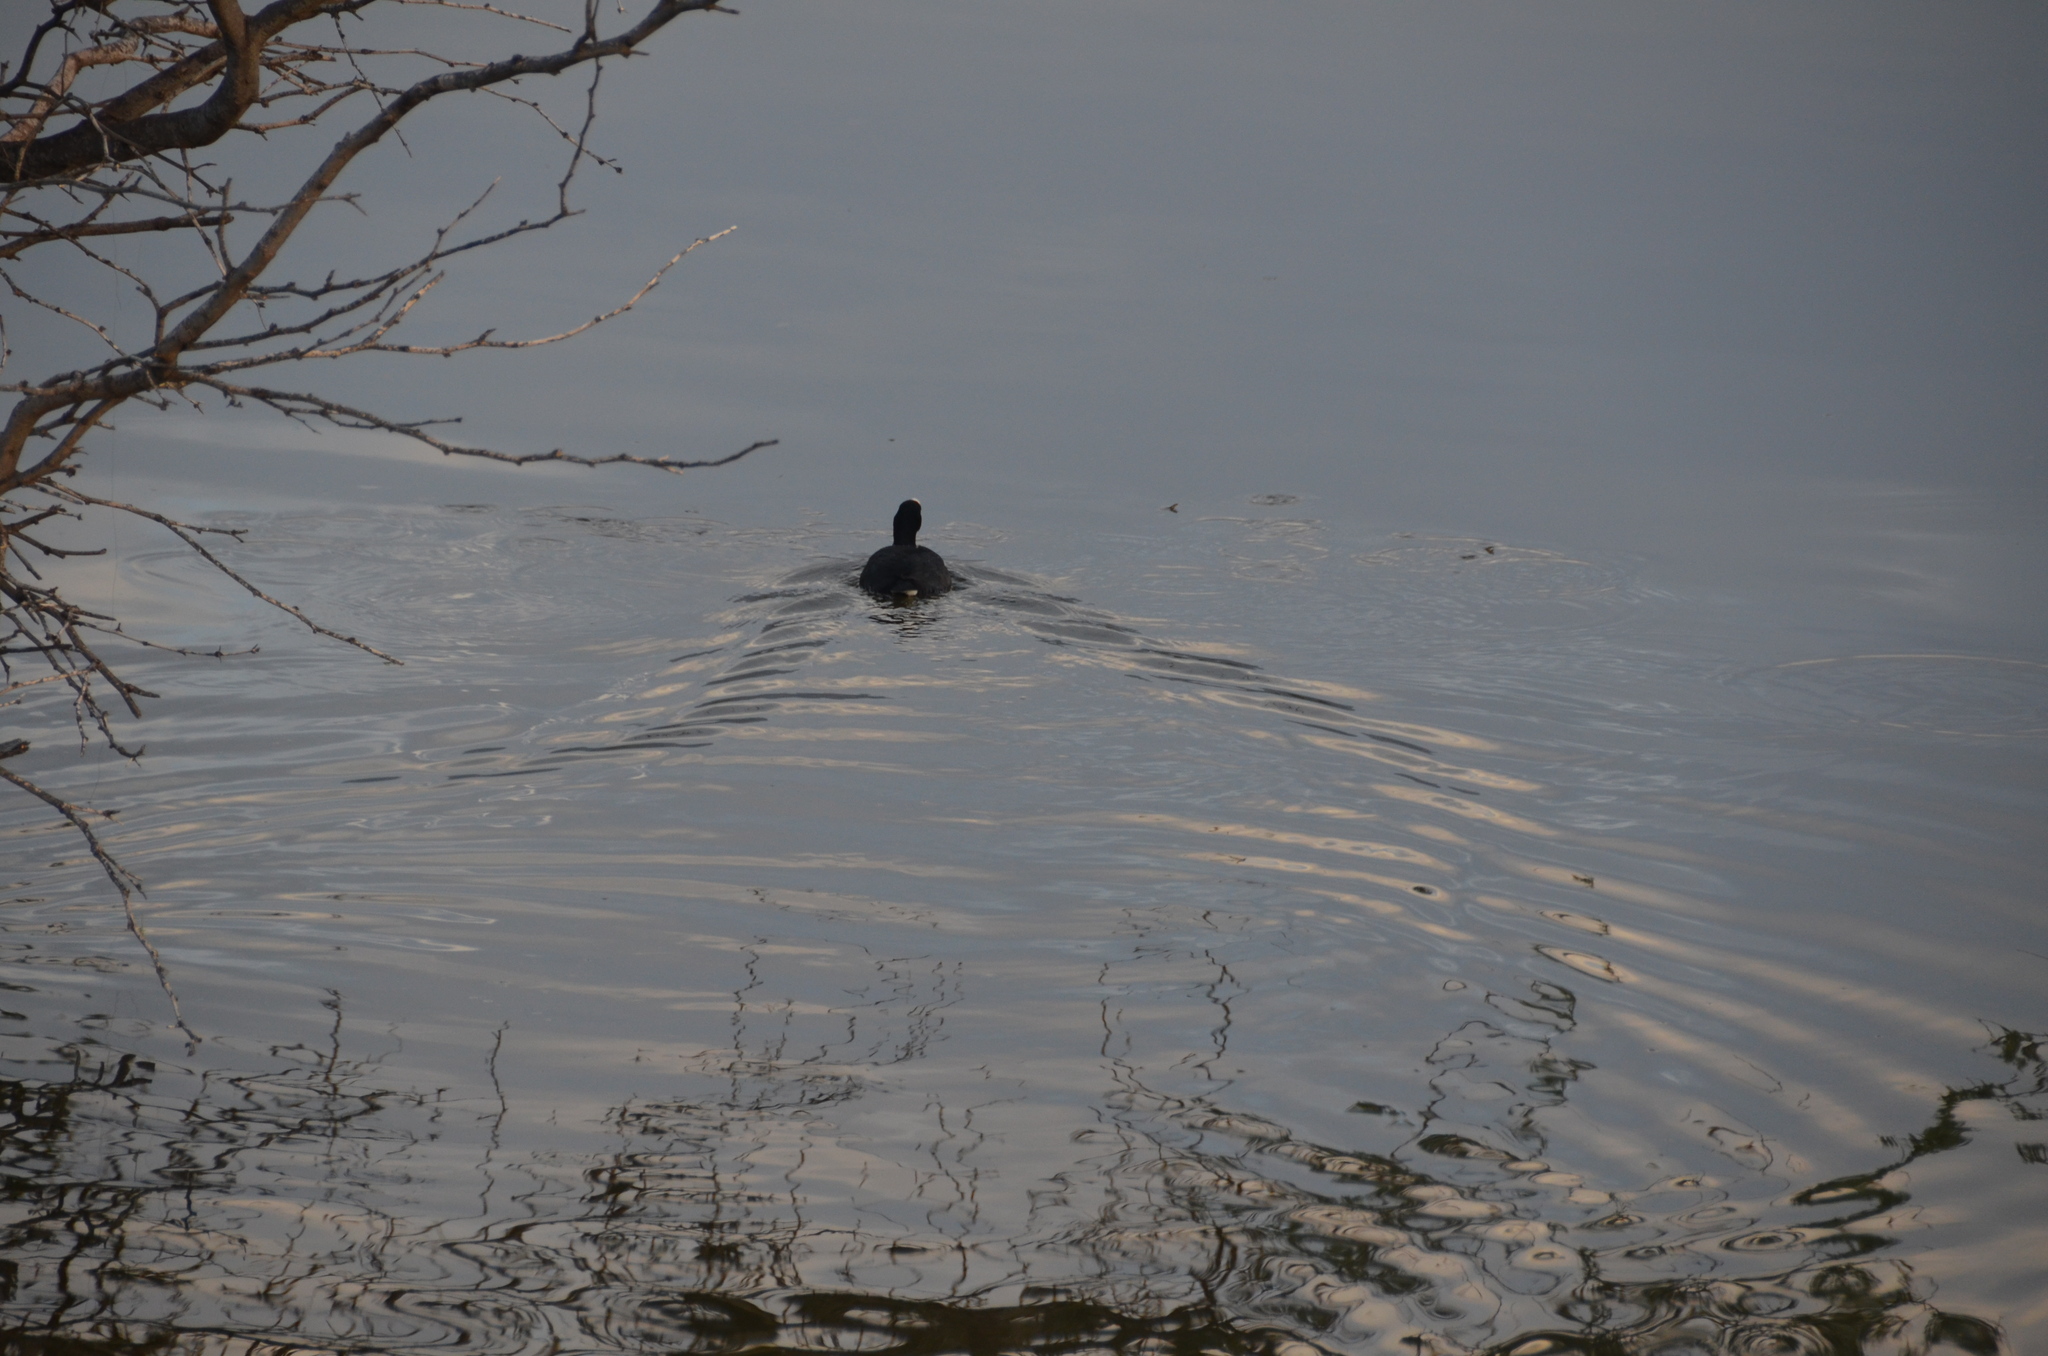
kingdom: Animalia
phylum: Chordata
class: Aves
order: Gruiformes
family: Rallidae
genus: Fulica
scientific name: Fulica alai
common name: Hawaiian coot
